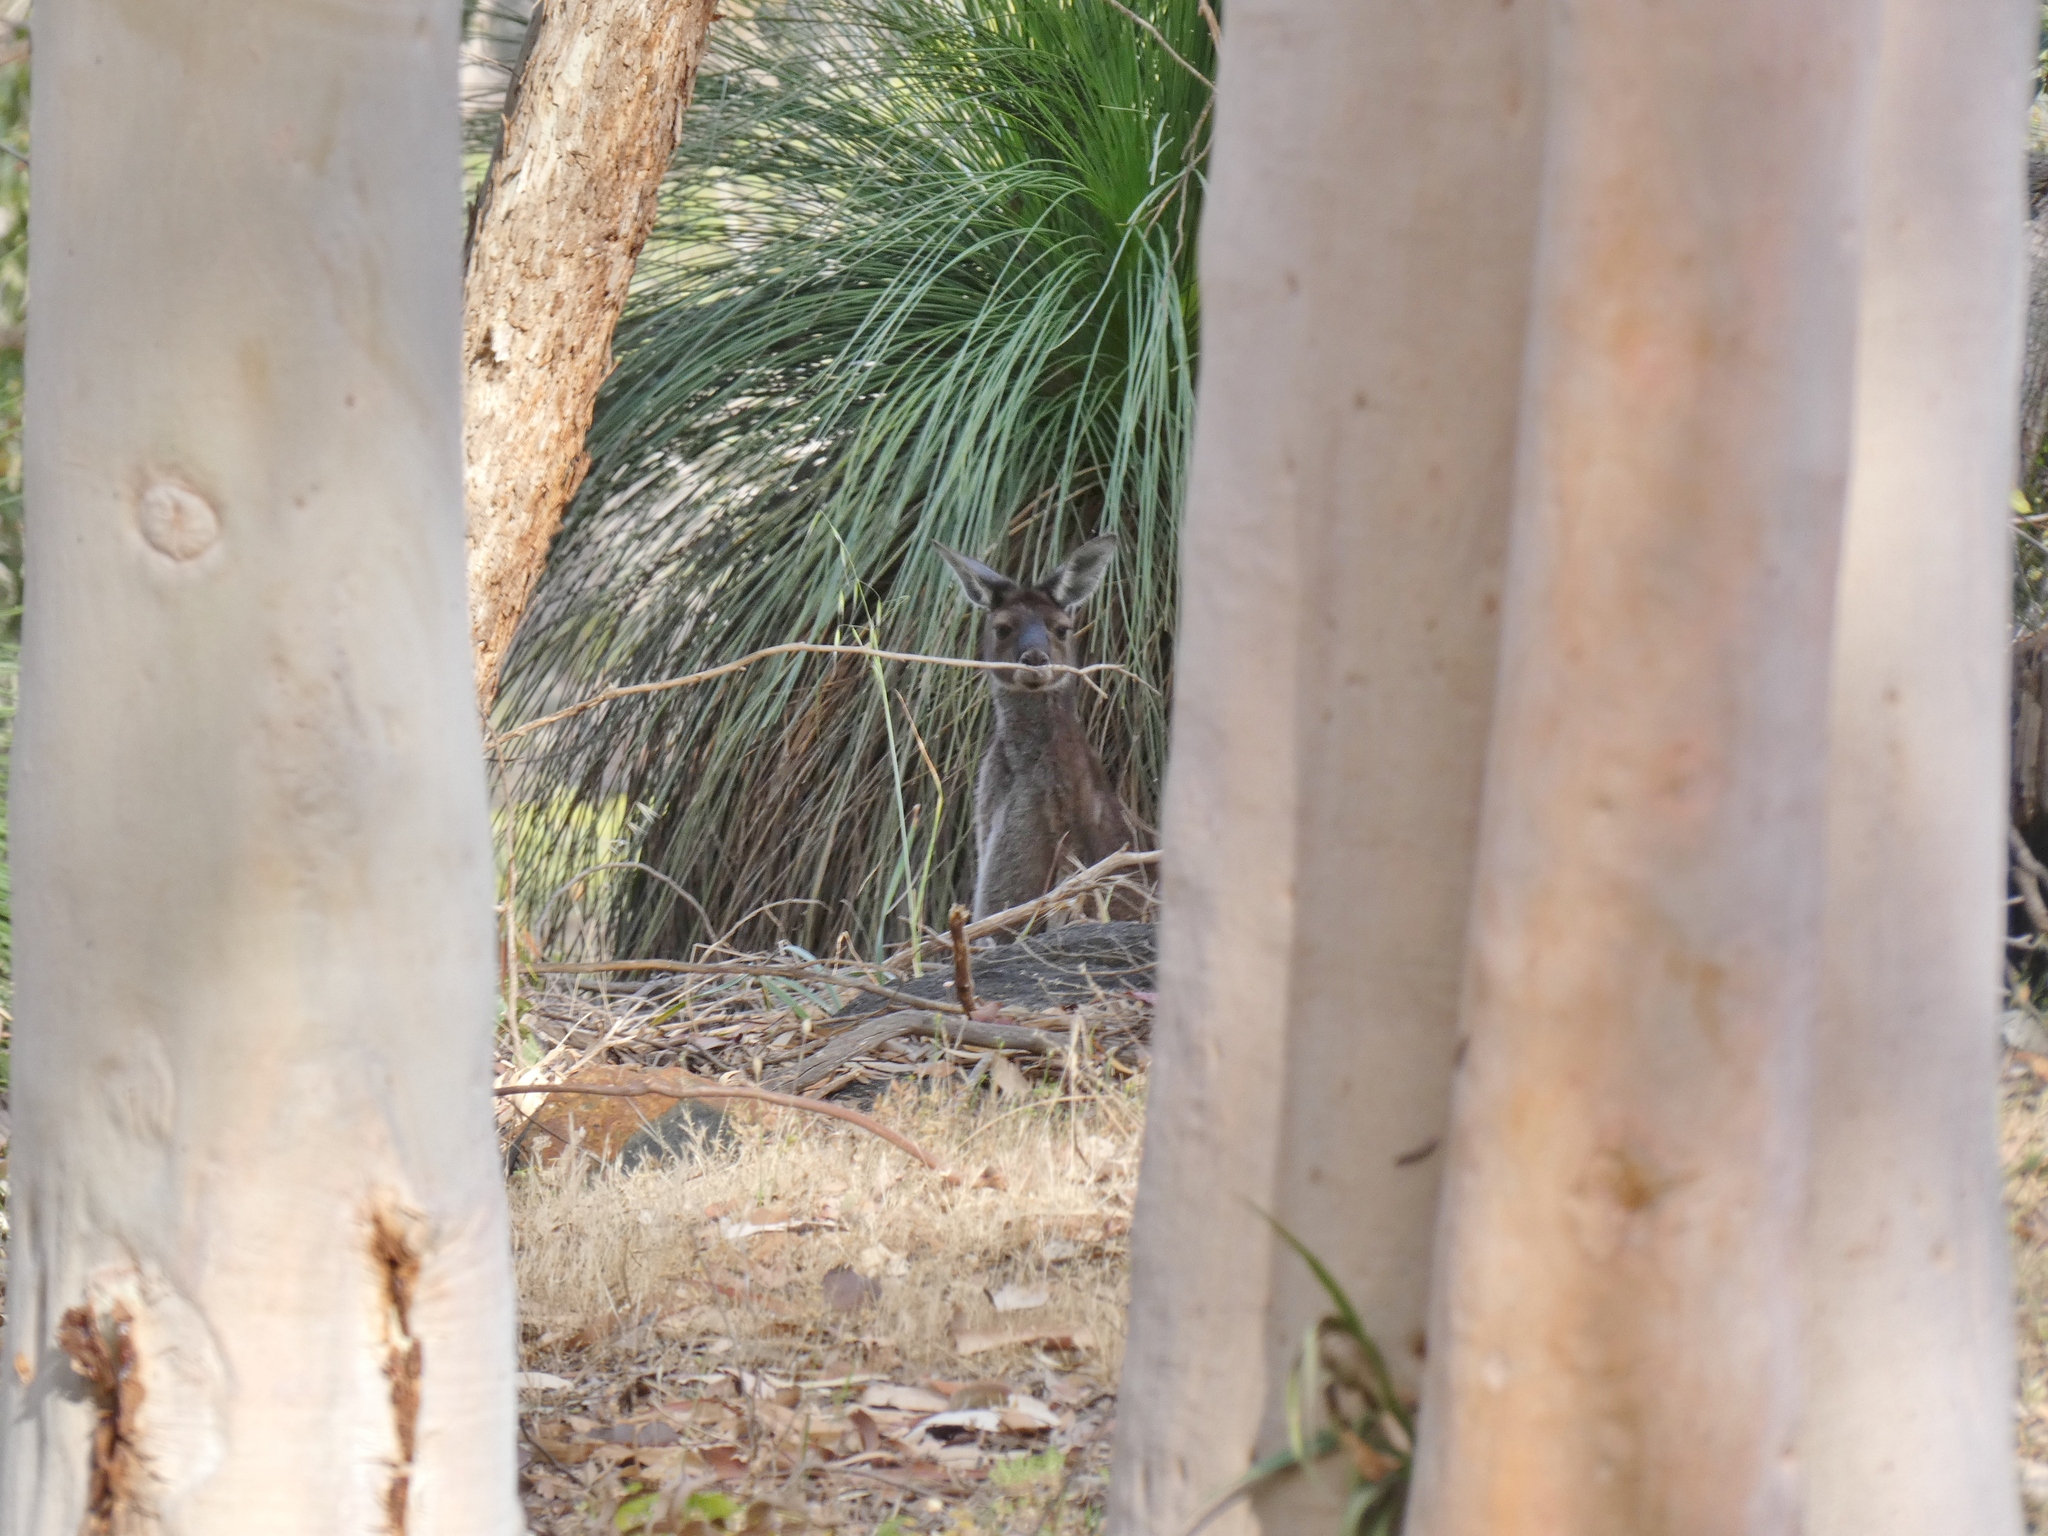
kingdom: Animalia
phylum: Chordata
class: Mammalia
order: Diprotodontia
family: Macropodidae
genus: Macropus
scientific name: Macropus fuliginosus
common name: Western grey kangaroo
